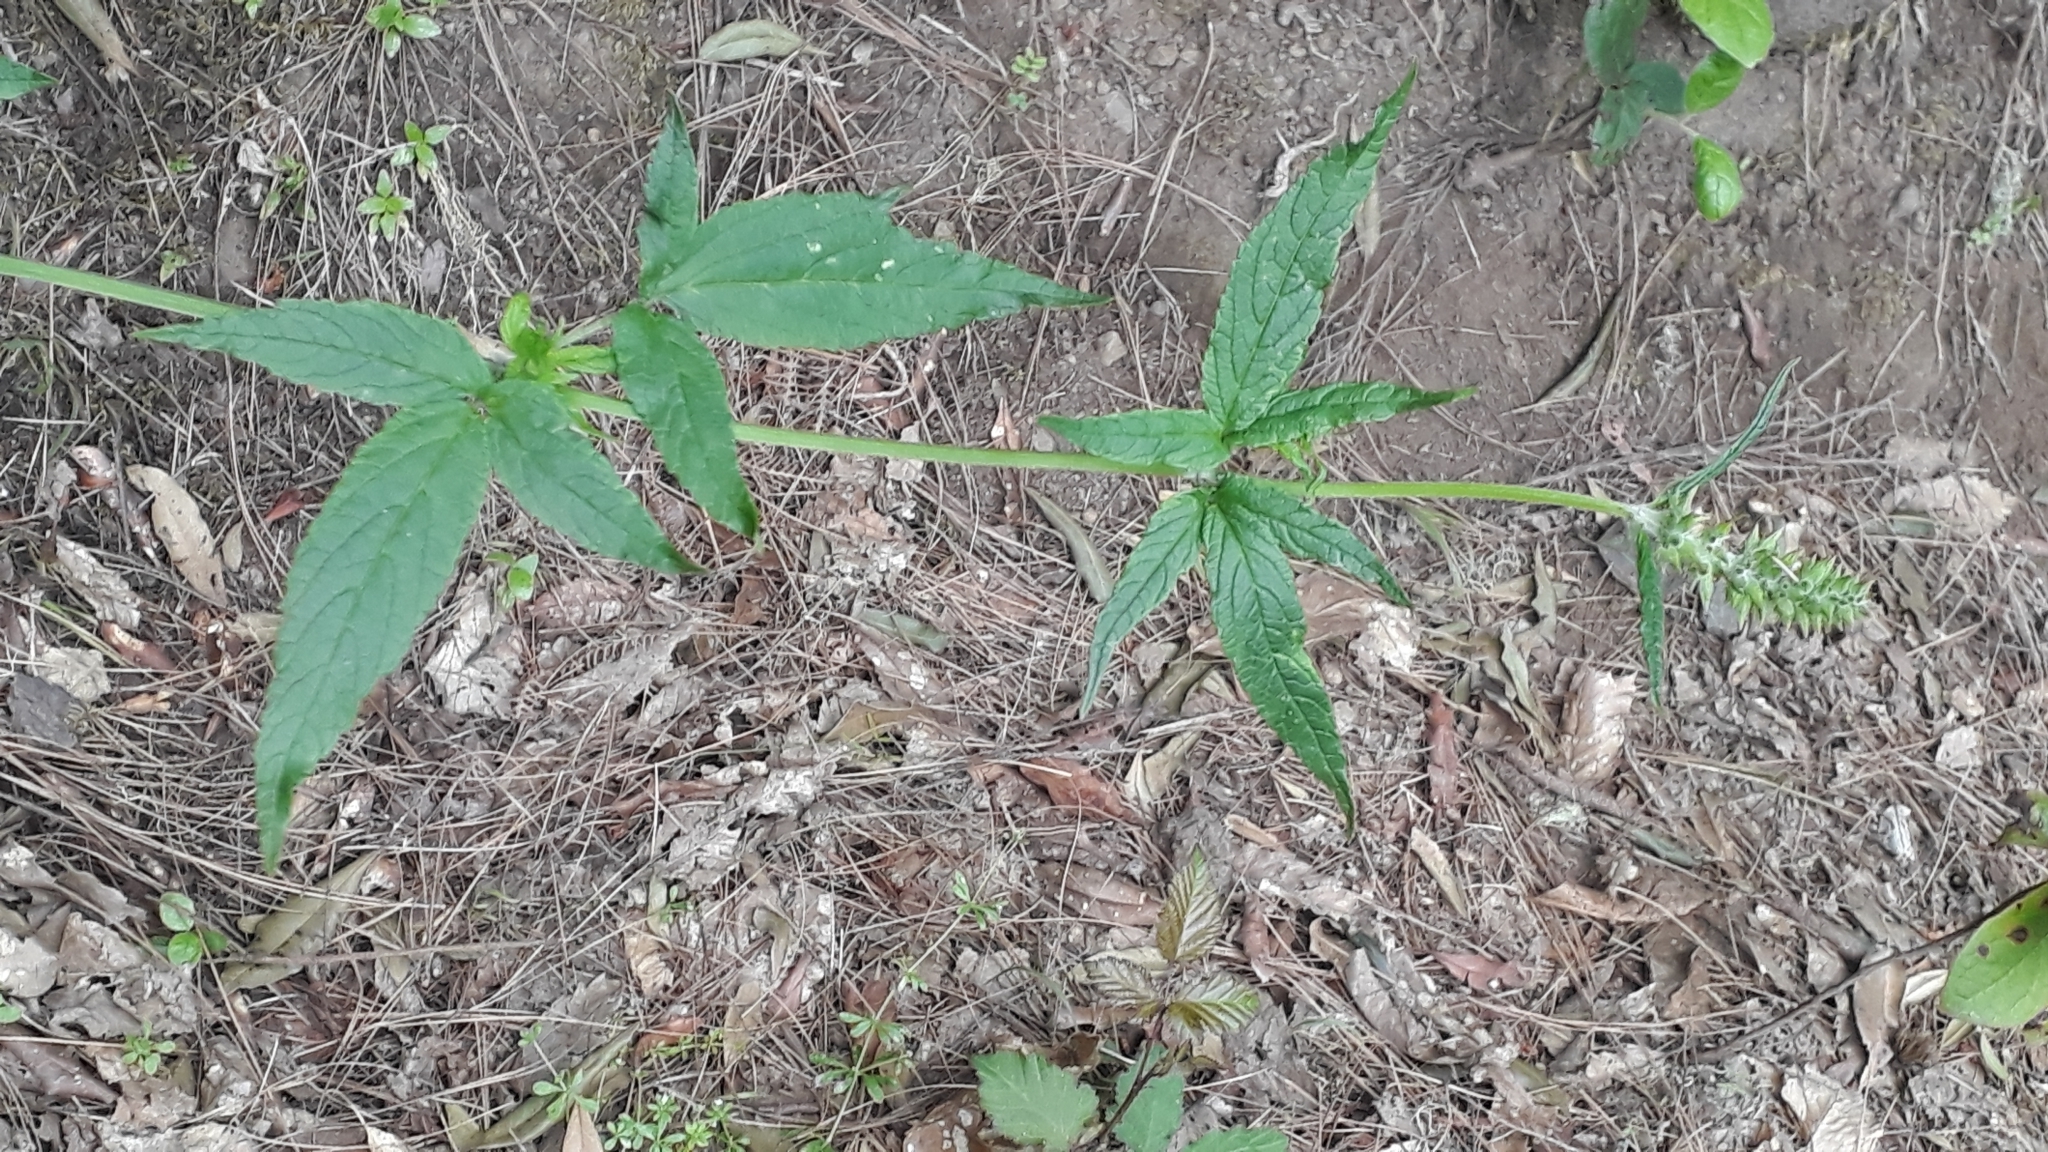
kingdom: Plantae
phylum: Tracheophyta
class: Magnoliopsida
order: Lamiales
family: Lamiaceae
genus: Cedronella
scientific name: Cedronella canariensis
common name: Canary islands balm
